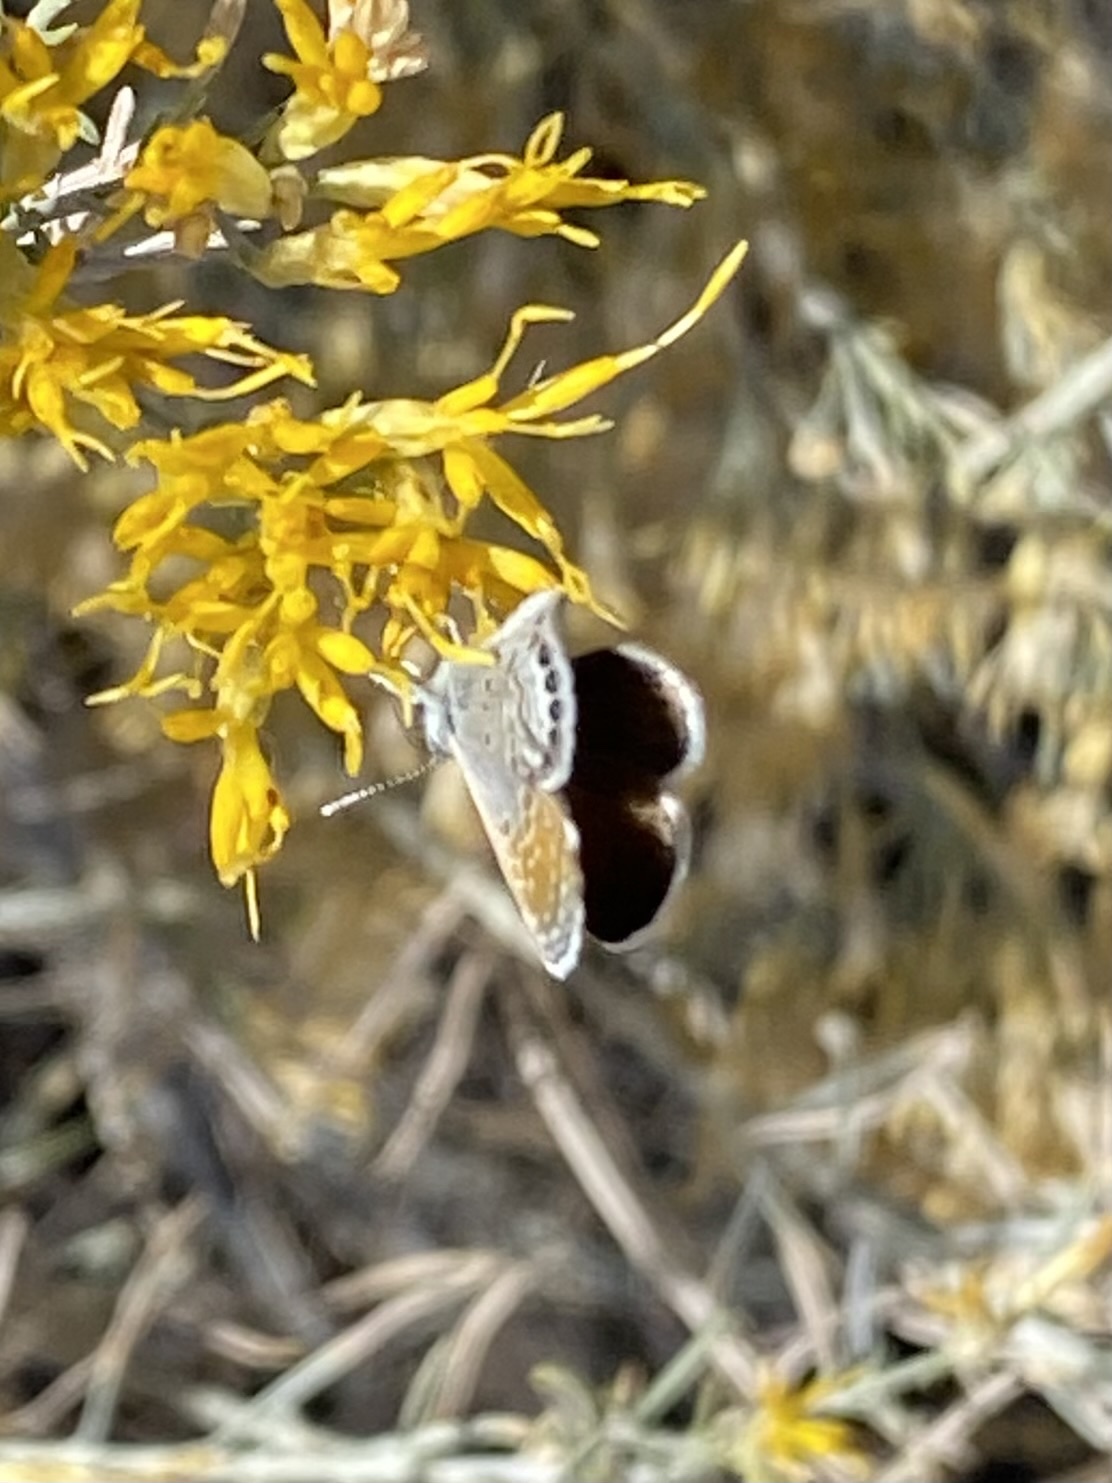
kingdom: Animalia
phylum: Arthropoda
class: Insecta
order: Lepidoptera
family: Lycaenidae
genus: Brephidium
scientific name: Brephidium exilis
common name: Pygmy blue
